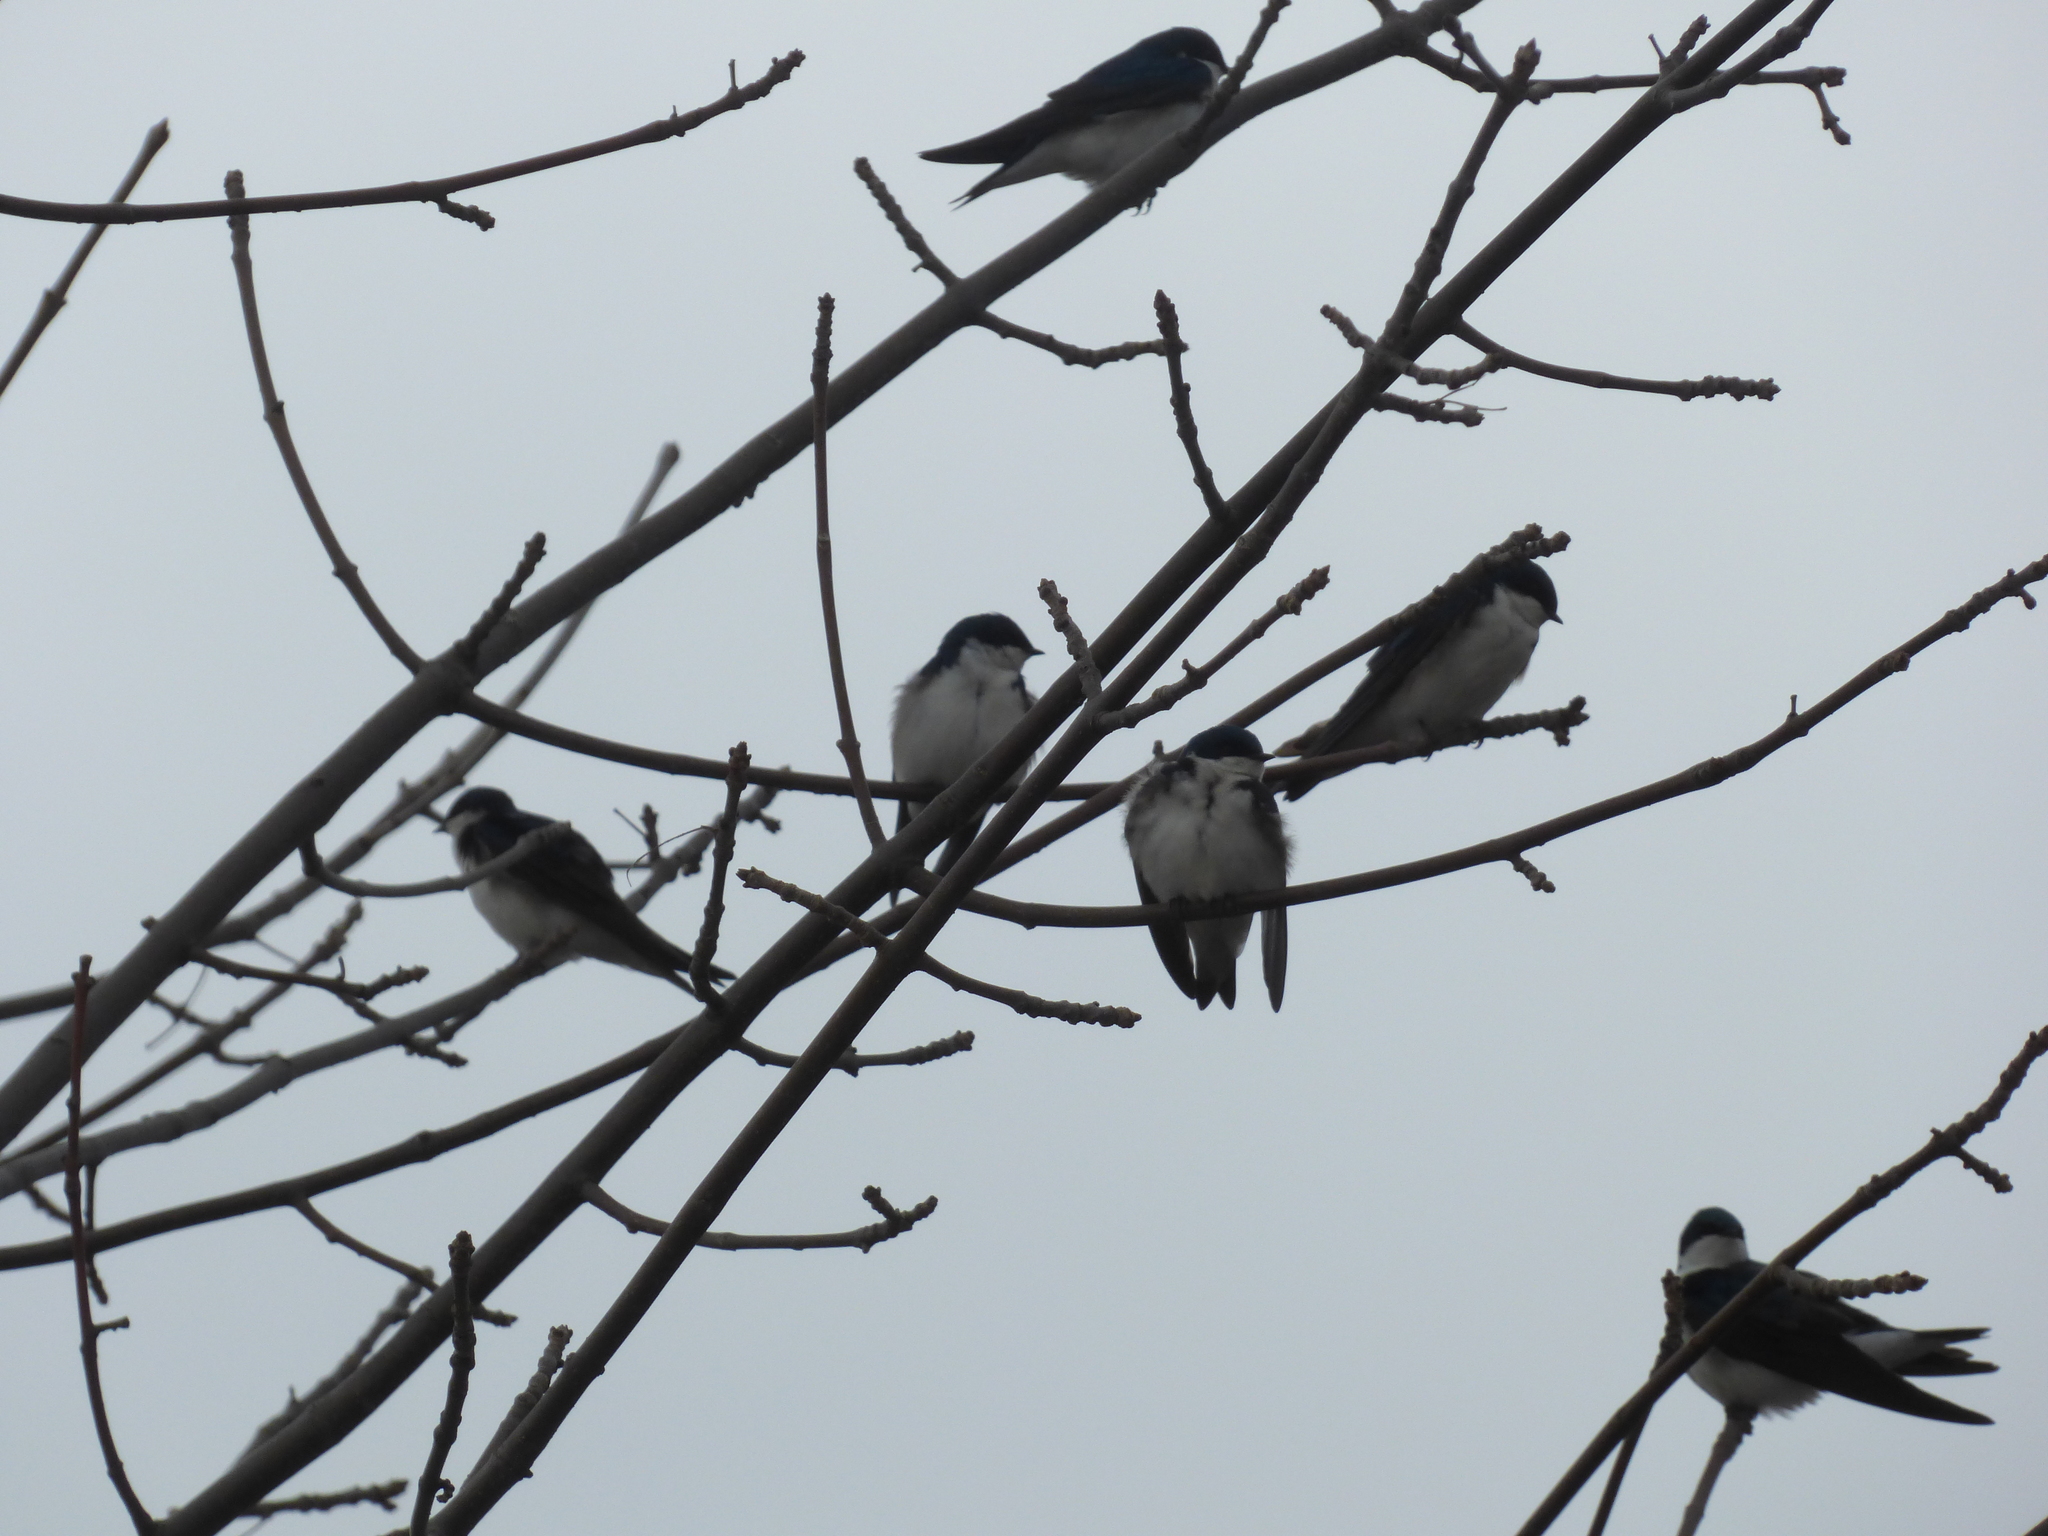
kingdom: Animalia
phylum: Chordata
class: Aves
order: Passeriformes
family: Hirundinidae
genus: Tachycineta
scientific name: Tachycineta bicolor
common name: Tree swallow
